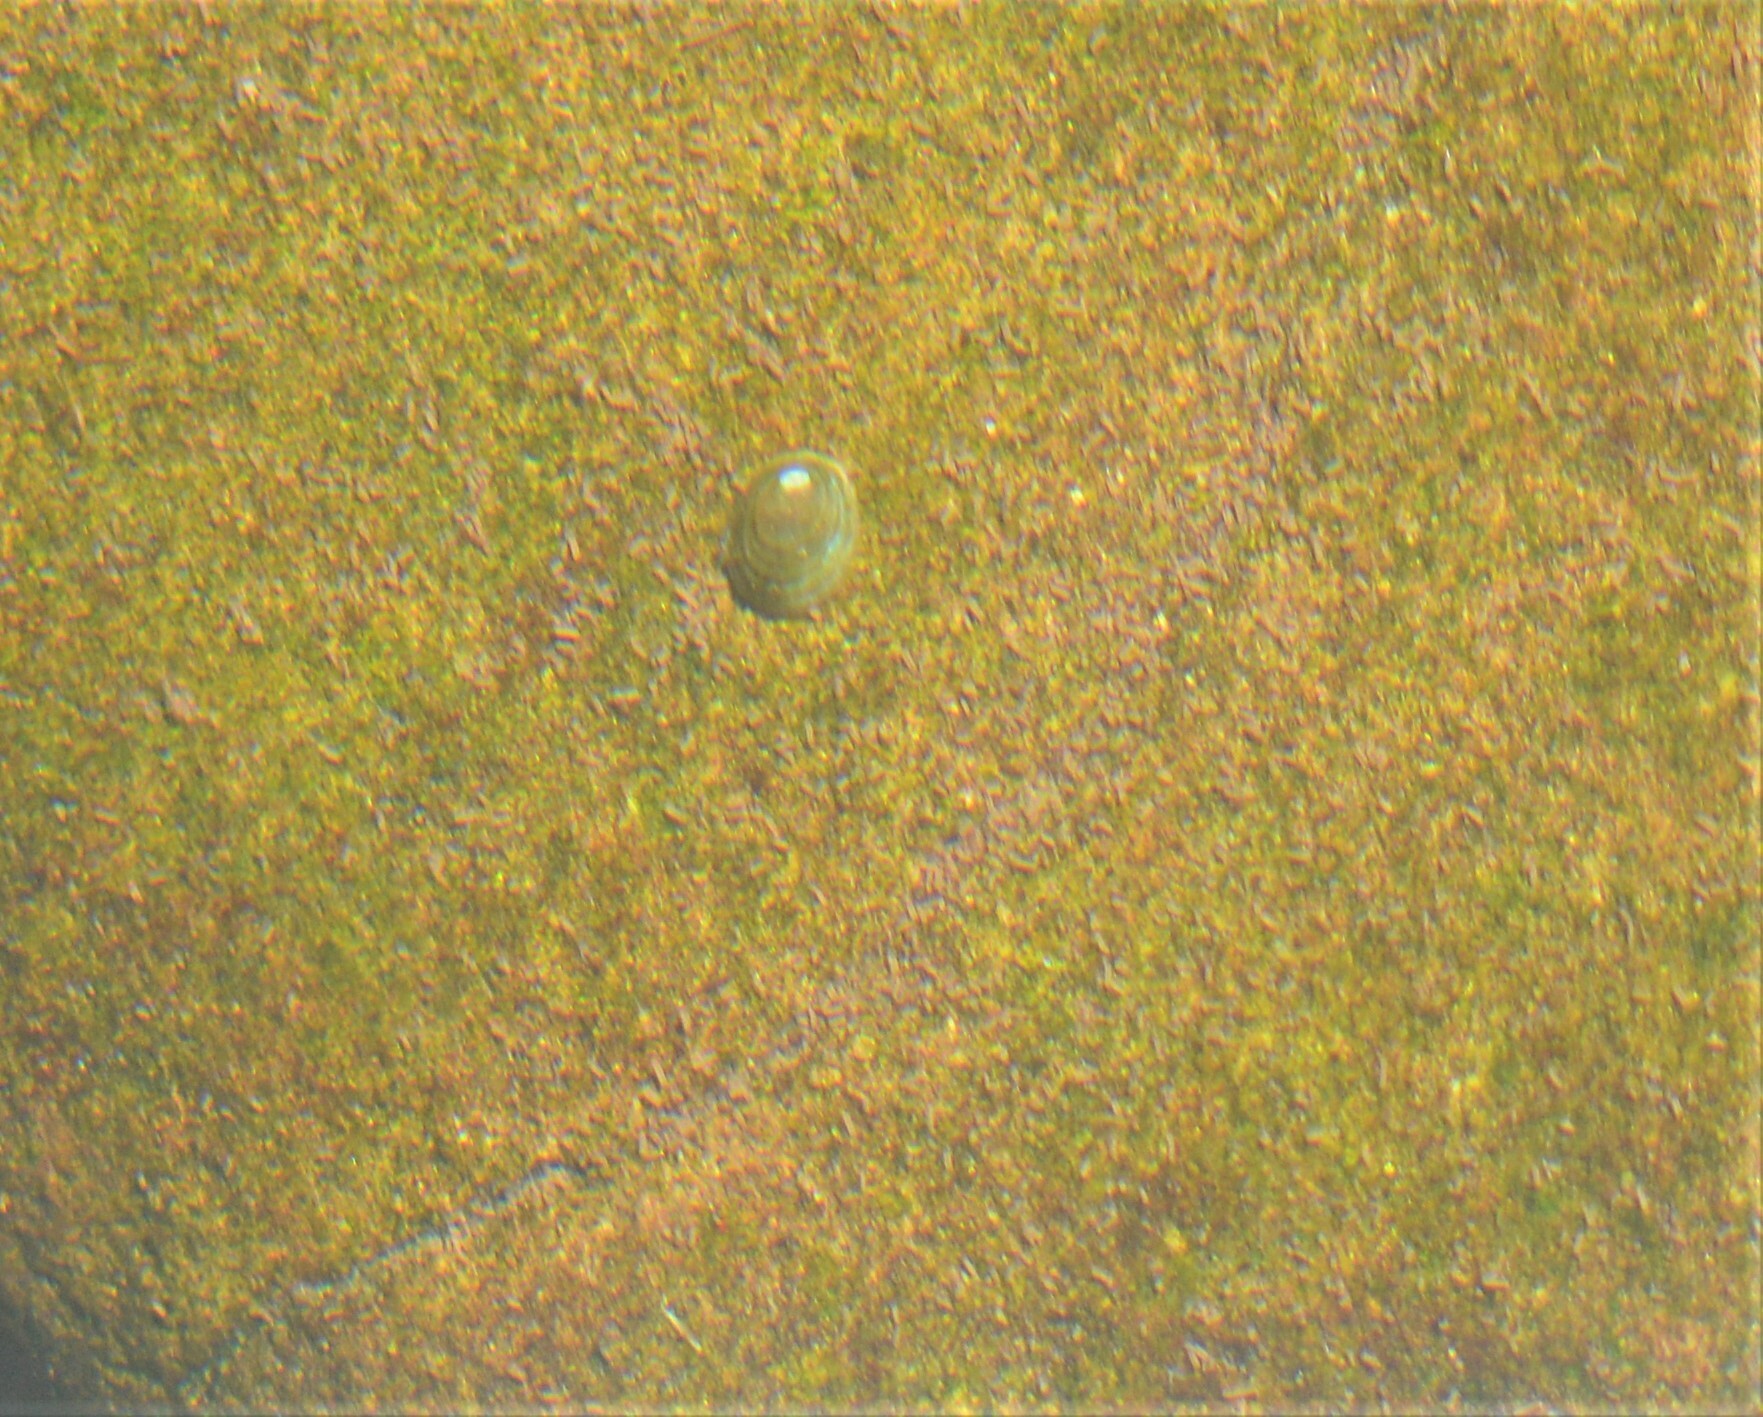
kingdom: Animalia
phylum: Mollusca
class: Gastropoda
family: Planorbidae
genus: Ancylus
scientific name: Ancylus fluviatilis
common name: River limpet
